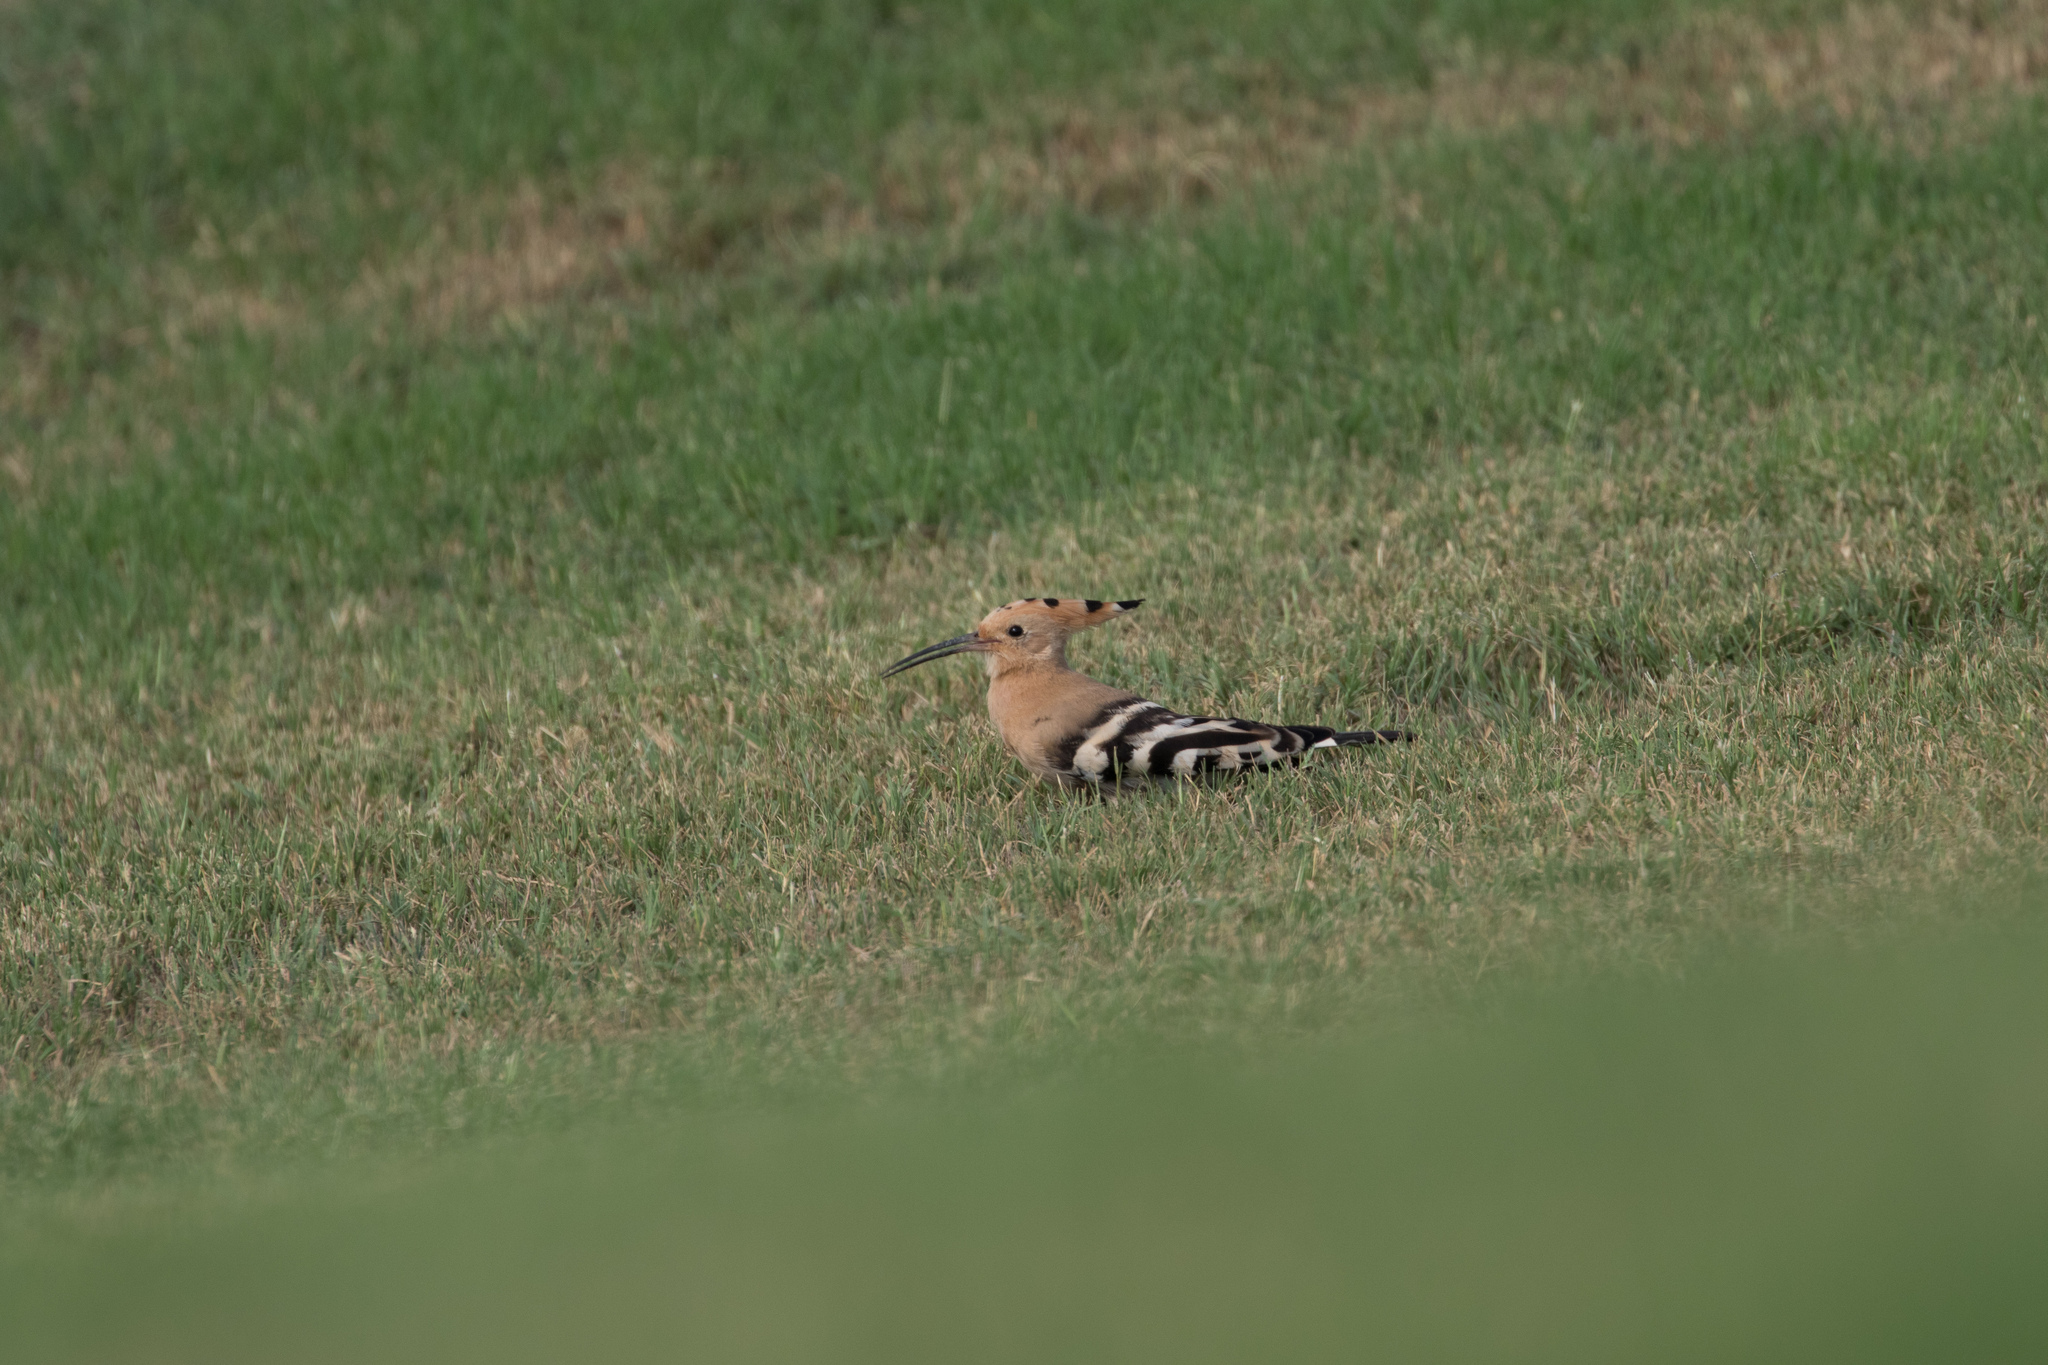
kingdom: Animalia
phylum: Chordata
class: Aves
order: Bucerotiformes
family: Upupidae
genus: Upupa
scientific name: Upupa epops
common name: Eurasian hoopoe
